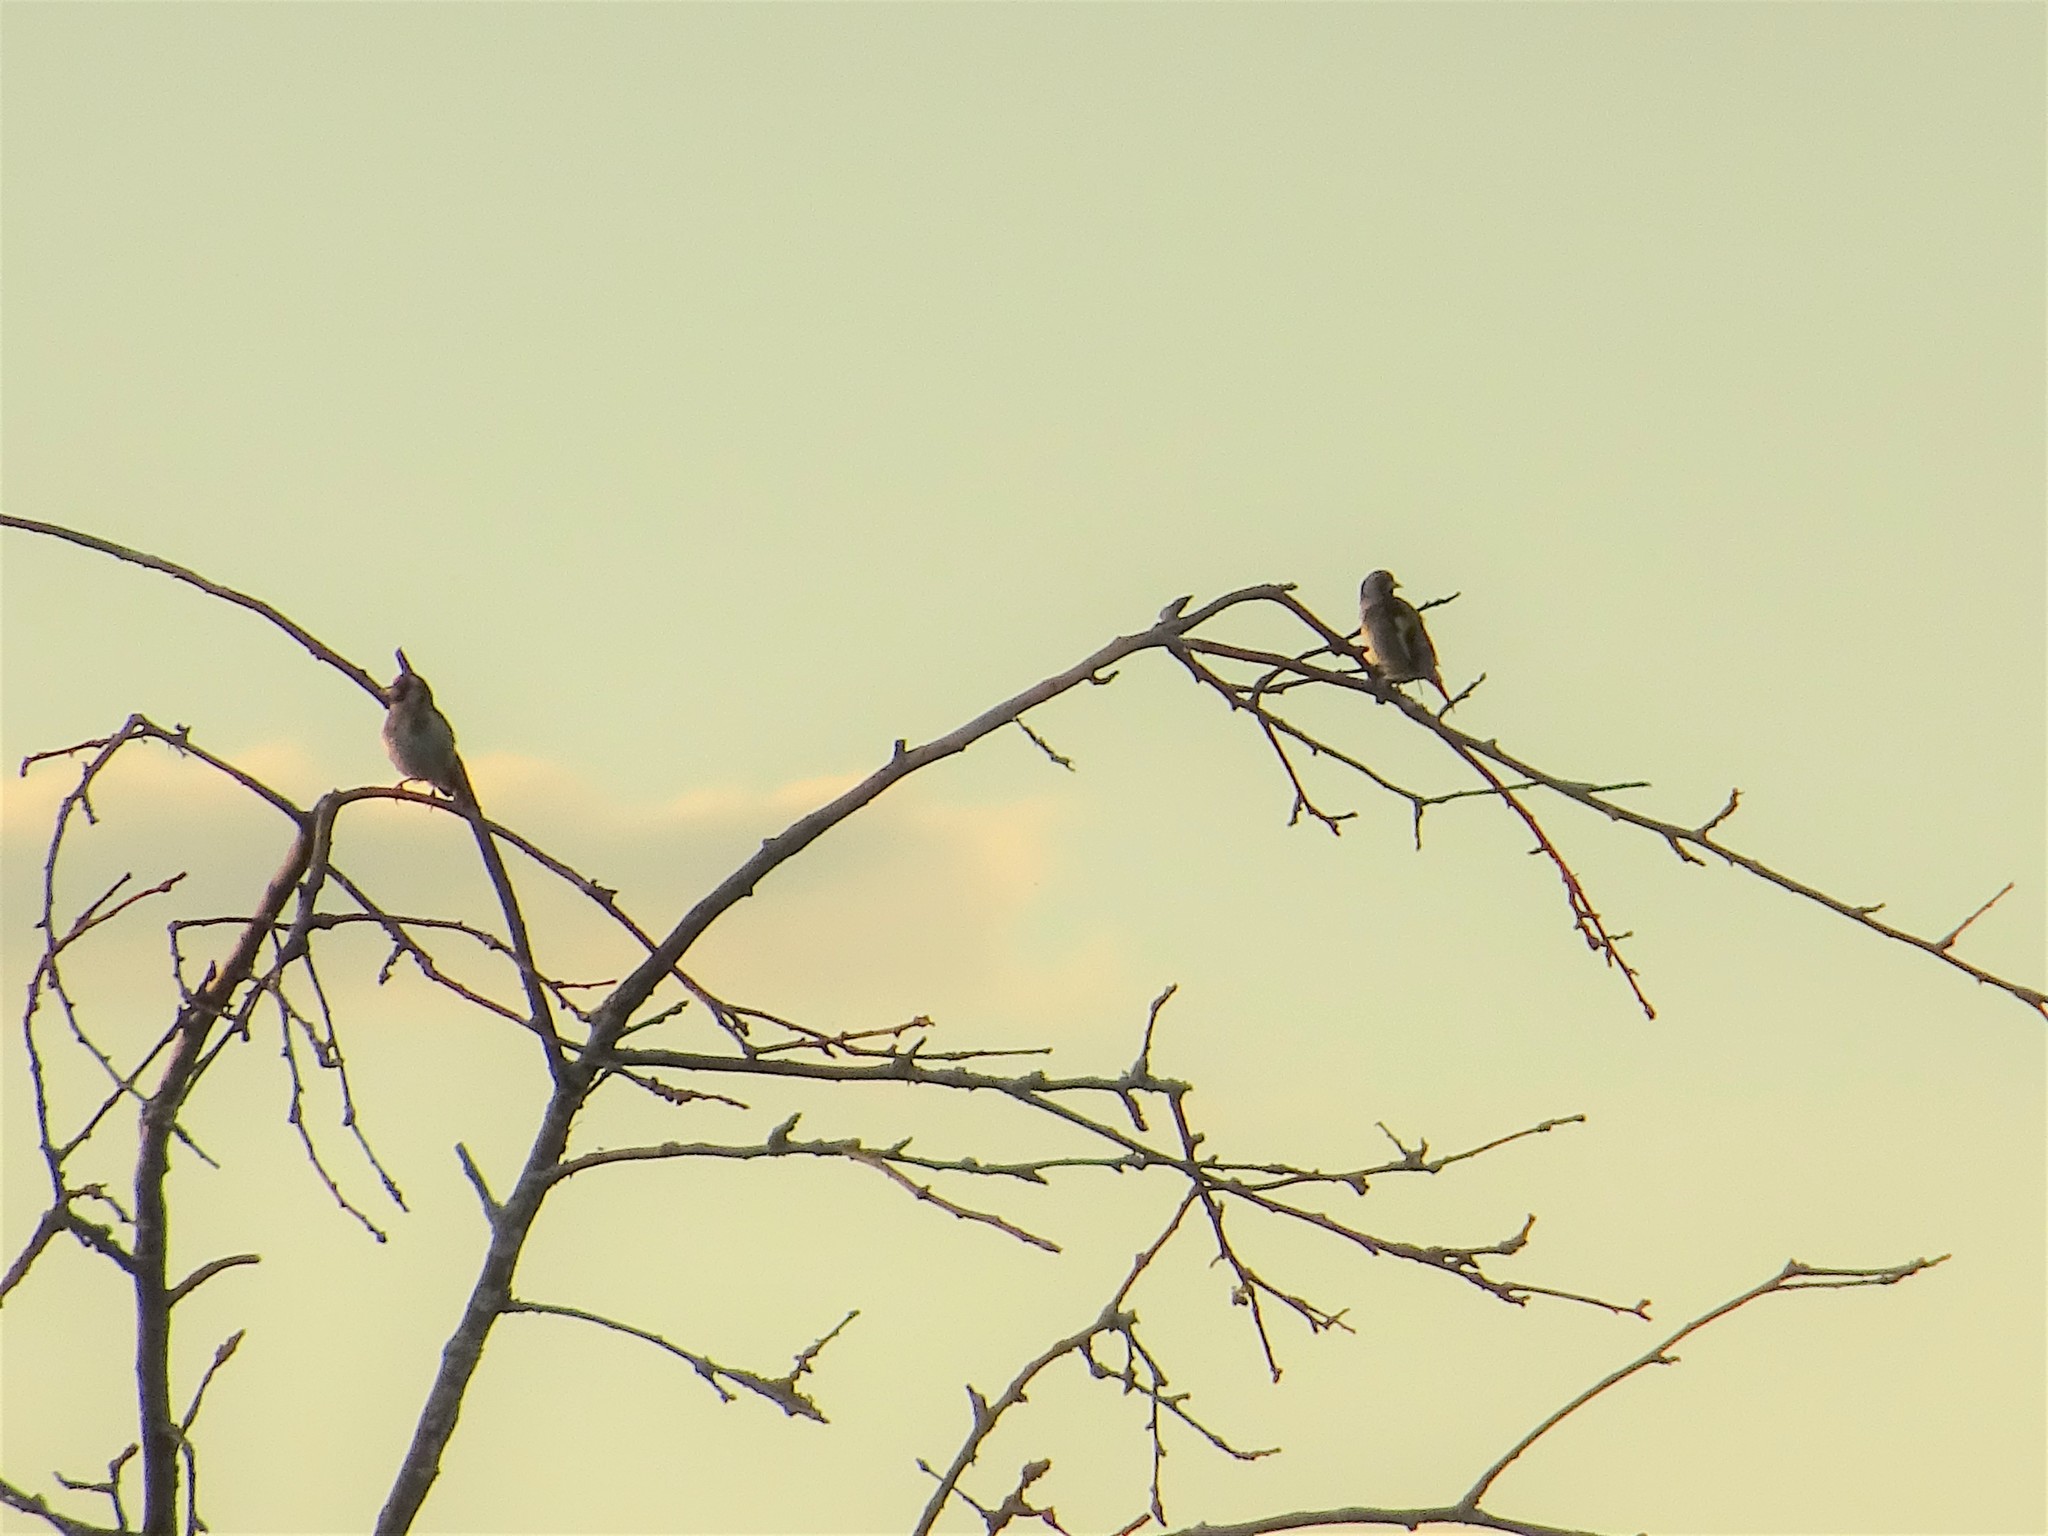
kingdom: Animalia
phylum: Chordata
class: Aves
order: Passeriformes
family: Fringillidae
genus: Carduelis
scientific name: Carduelis carduelis
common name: European goldfinch
